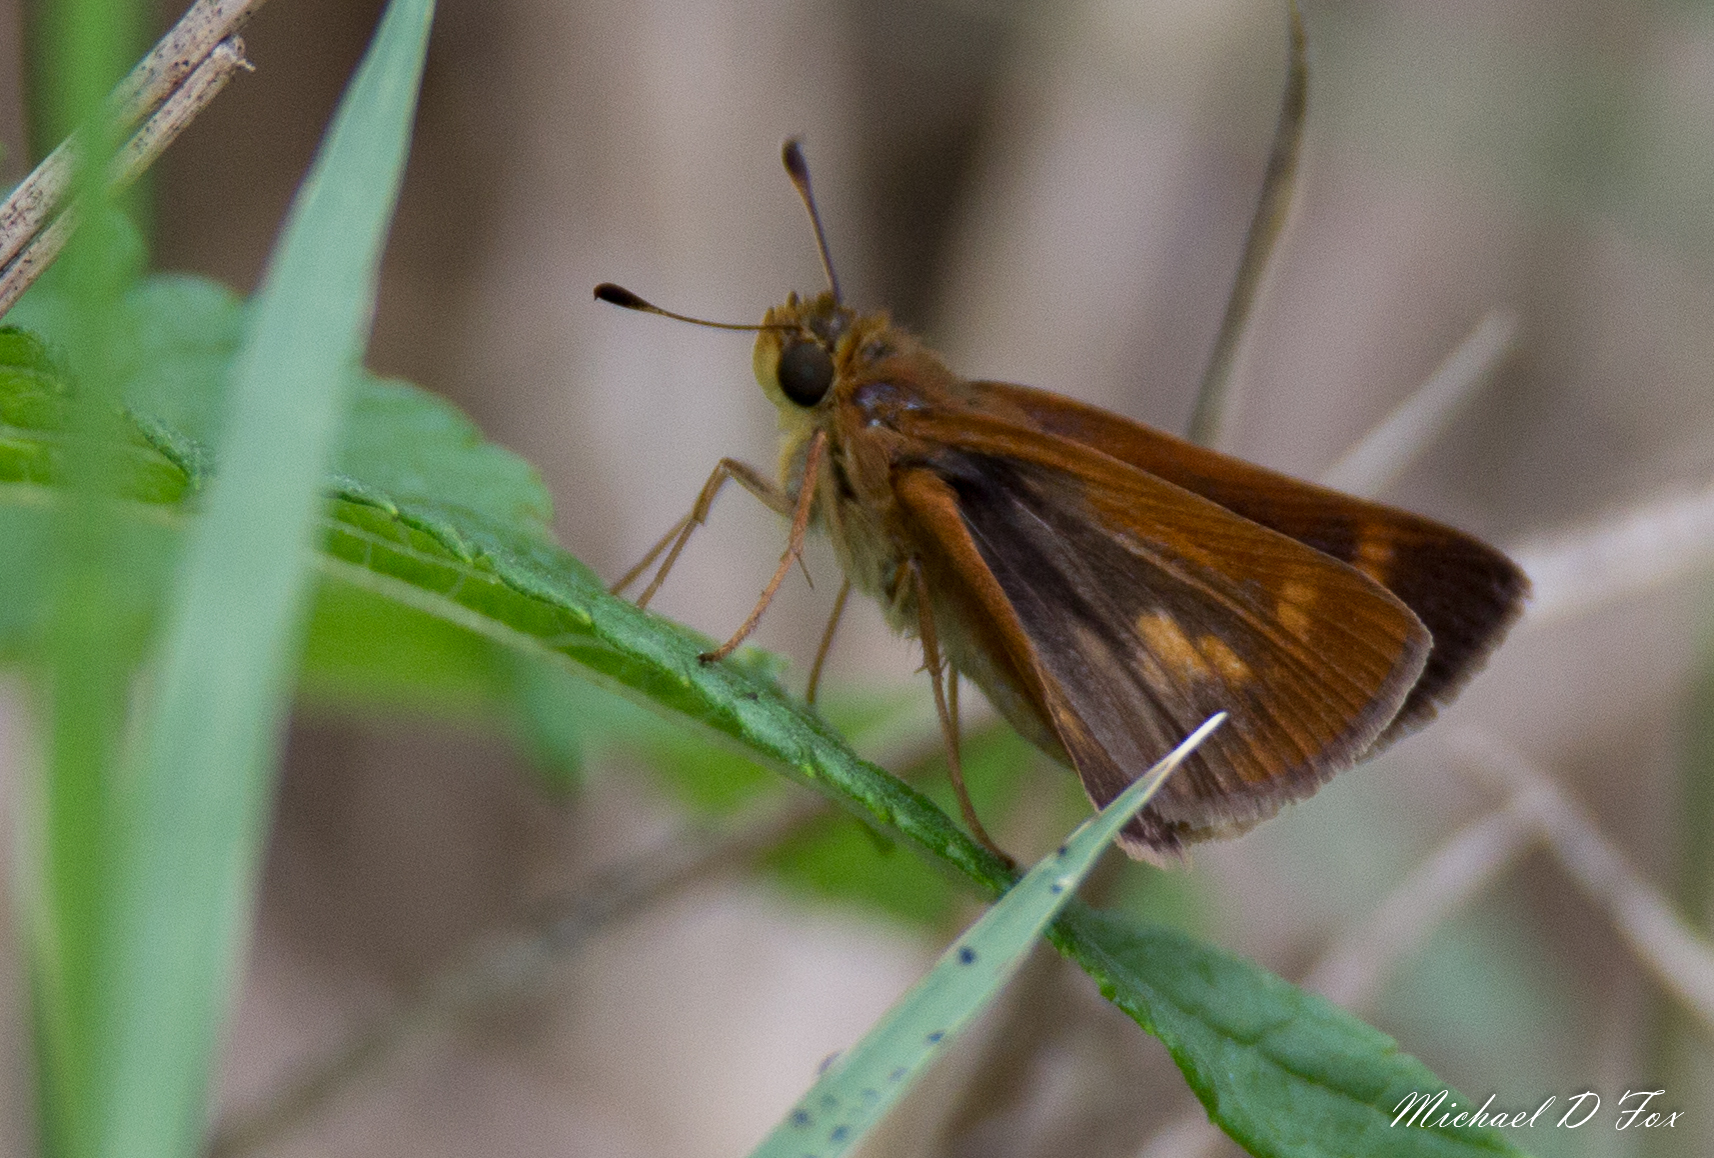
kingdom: Animalia
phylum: Arthropoda
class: Insecta
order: Lepidoptera
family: Hesperiidae
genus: Polites
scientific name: Polites otho
